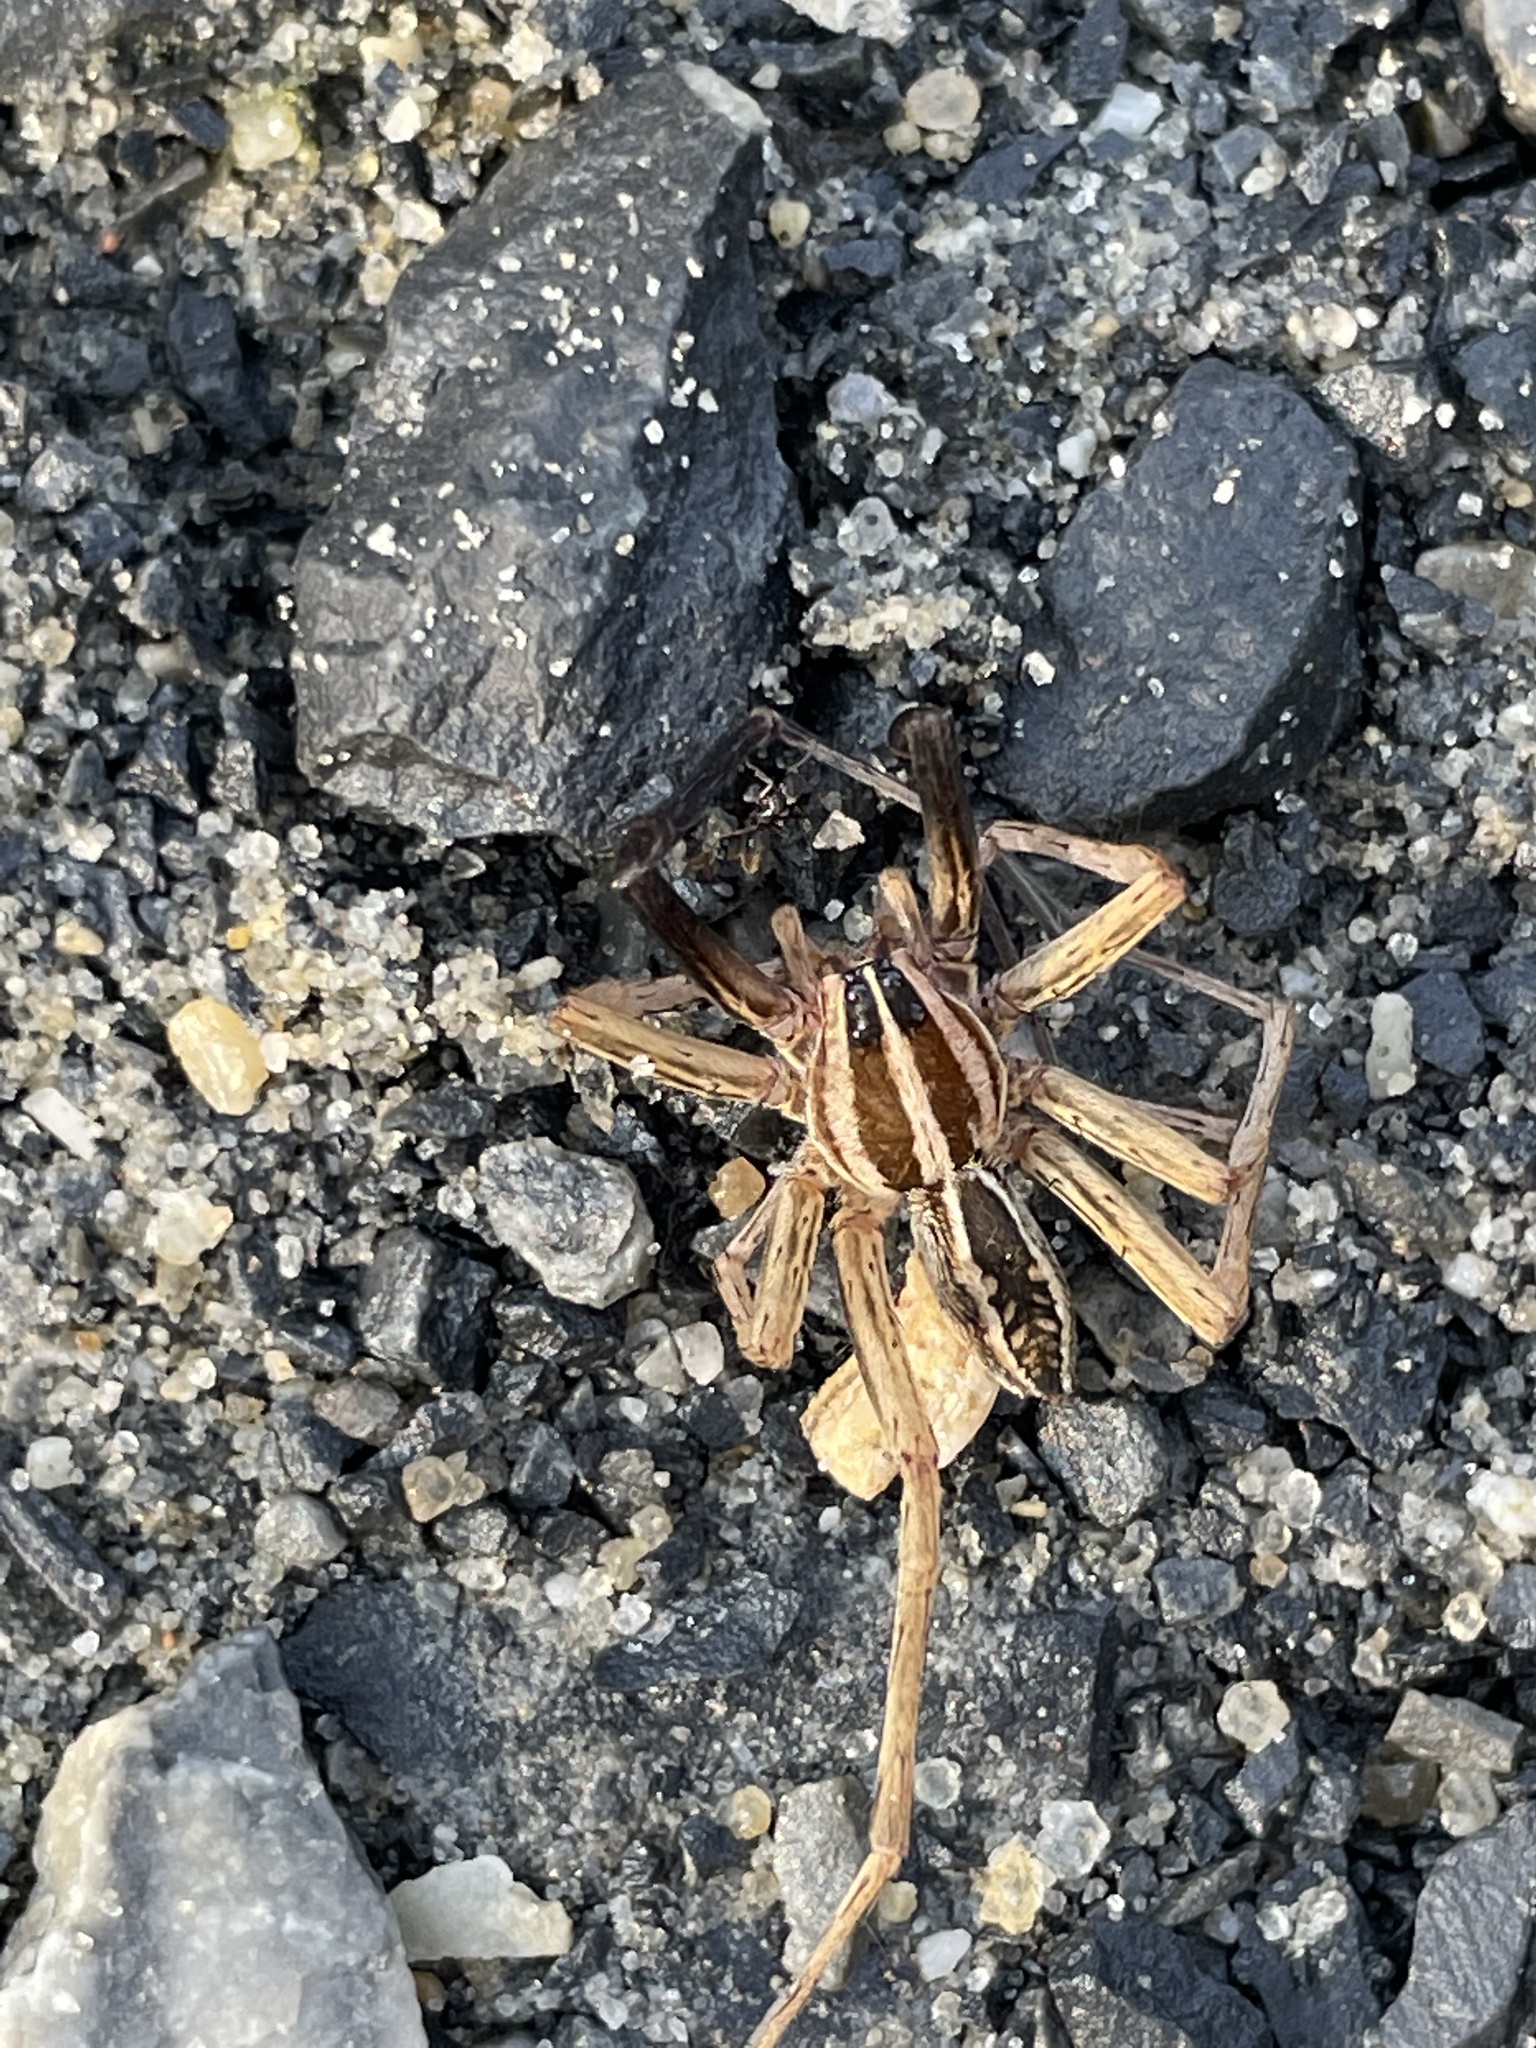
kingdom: Animalia
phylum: Arthropoda
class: Arachnida
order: Araneae
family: Lycosidae
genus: Rabidosa
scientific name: Rabidosa rabida
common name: Rabid wolf spider
